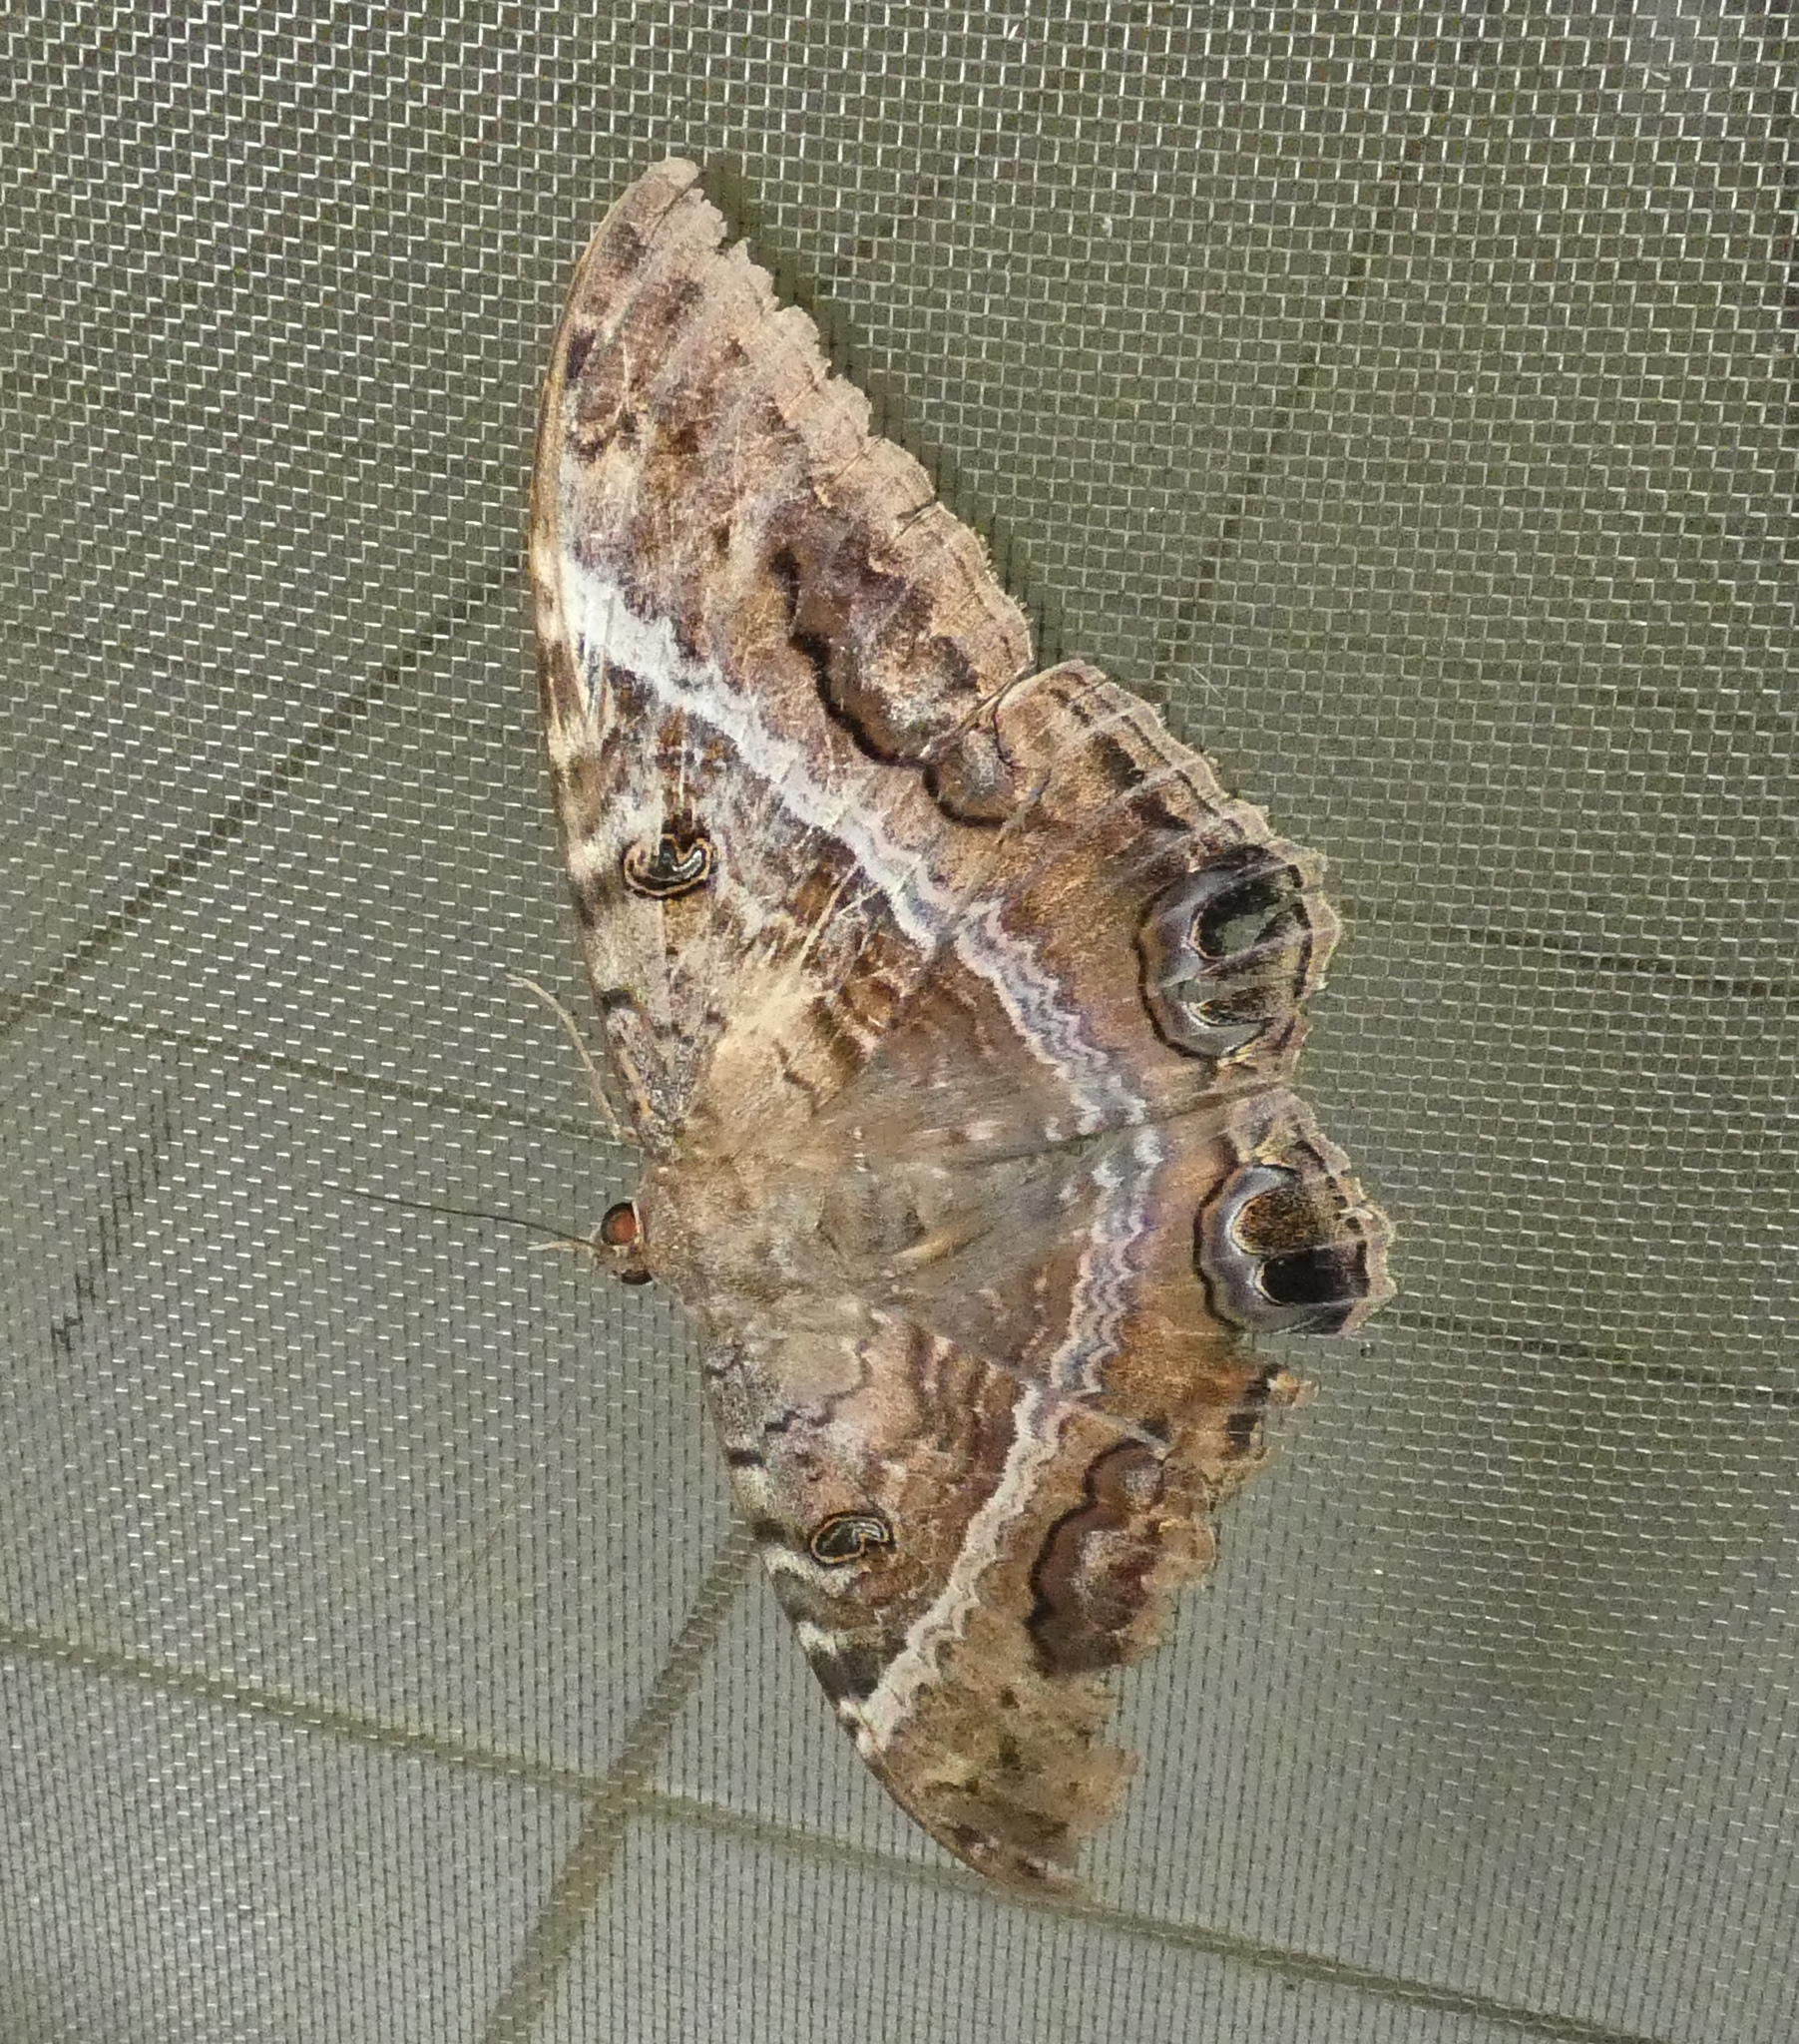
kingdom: Animalia
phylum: Arthropoda
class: Insecta
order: Lepidoptera
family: Erebidae
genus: Ascalapha
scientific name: Ascalapha odorata
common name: Black witch
